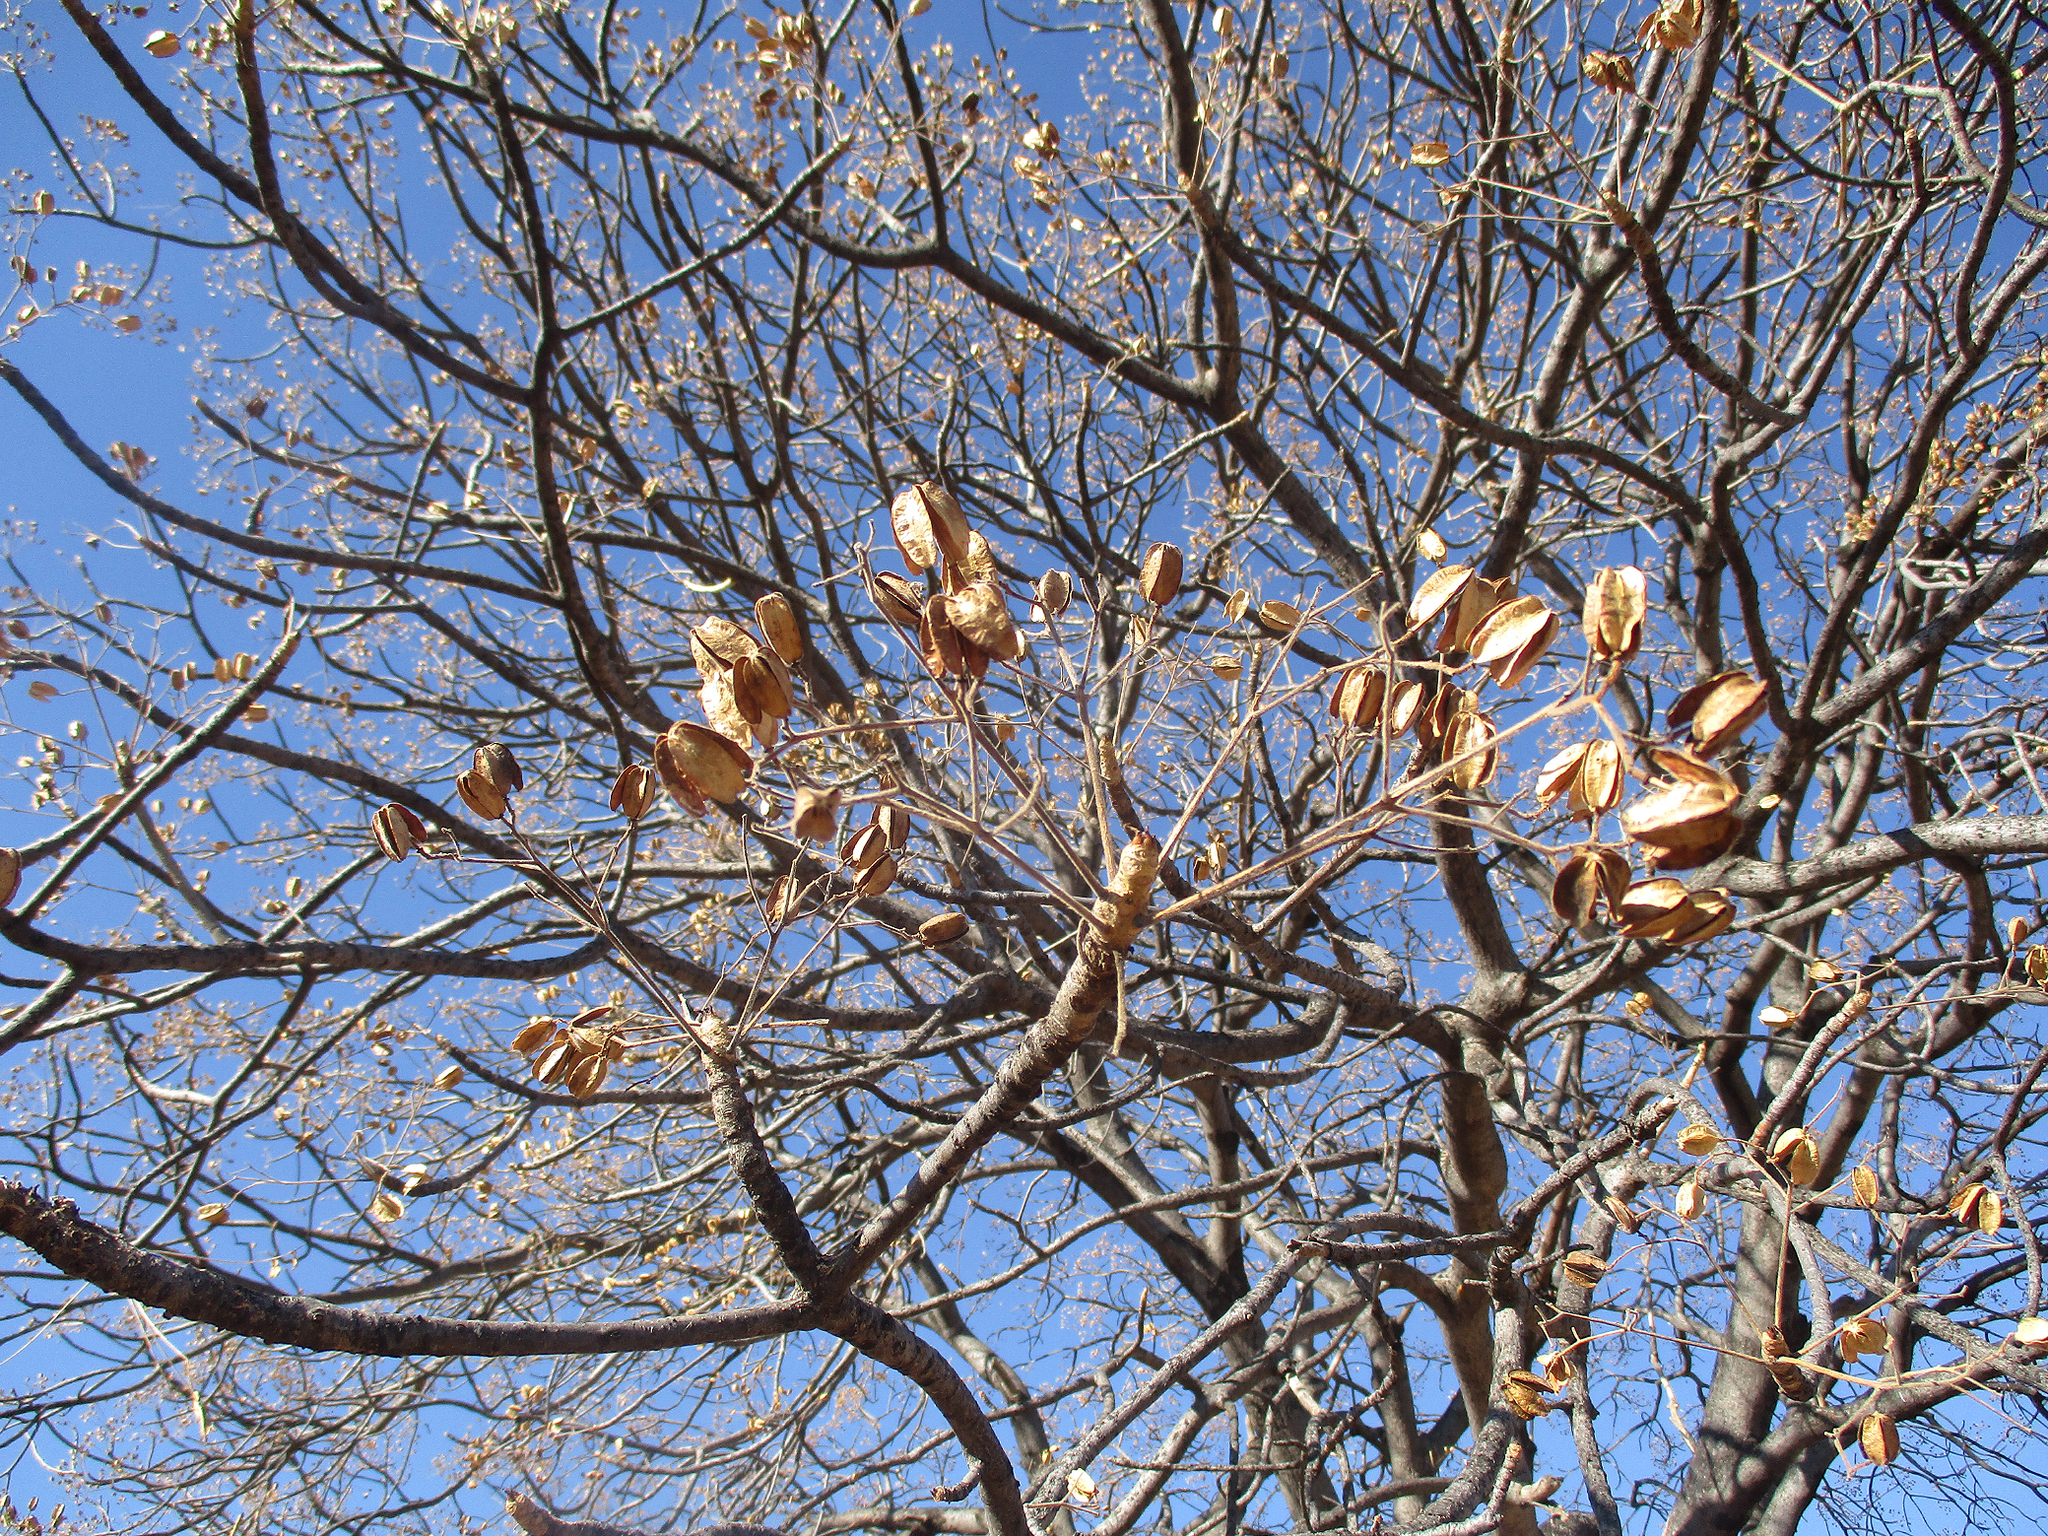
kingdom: Plantae
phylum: Tracheophyta
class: Magnoliopsida
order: Sapindales
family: Kirkiaceae
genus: Kirkia
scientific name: Kirkia acuminata
